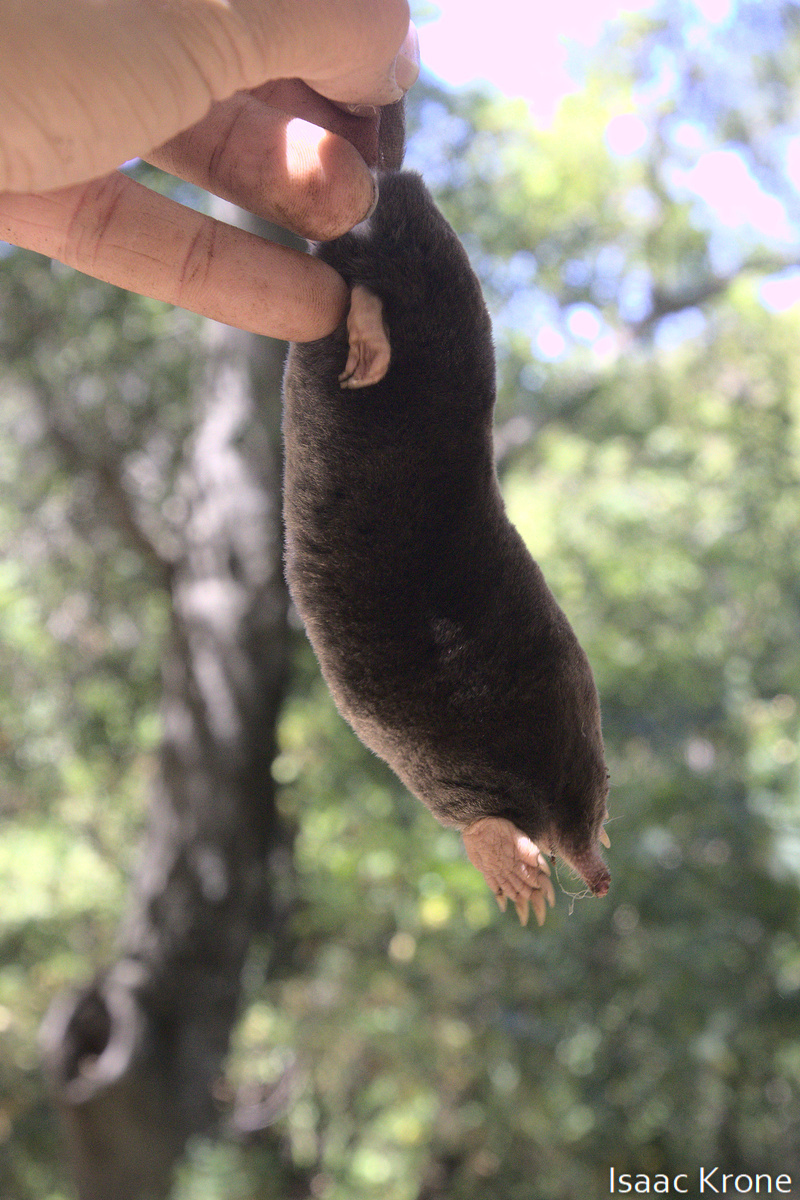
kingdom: Animalia
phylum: Chordata
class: Mammalia
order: Soricomorpha
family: Talpidae
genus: Scapanus
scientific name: Scapanus latimanus
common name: Broad-footed mole
